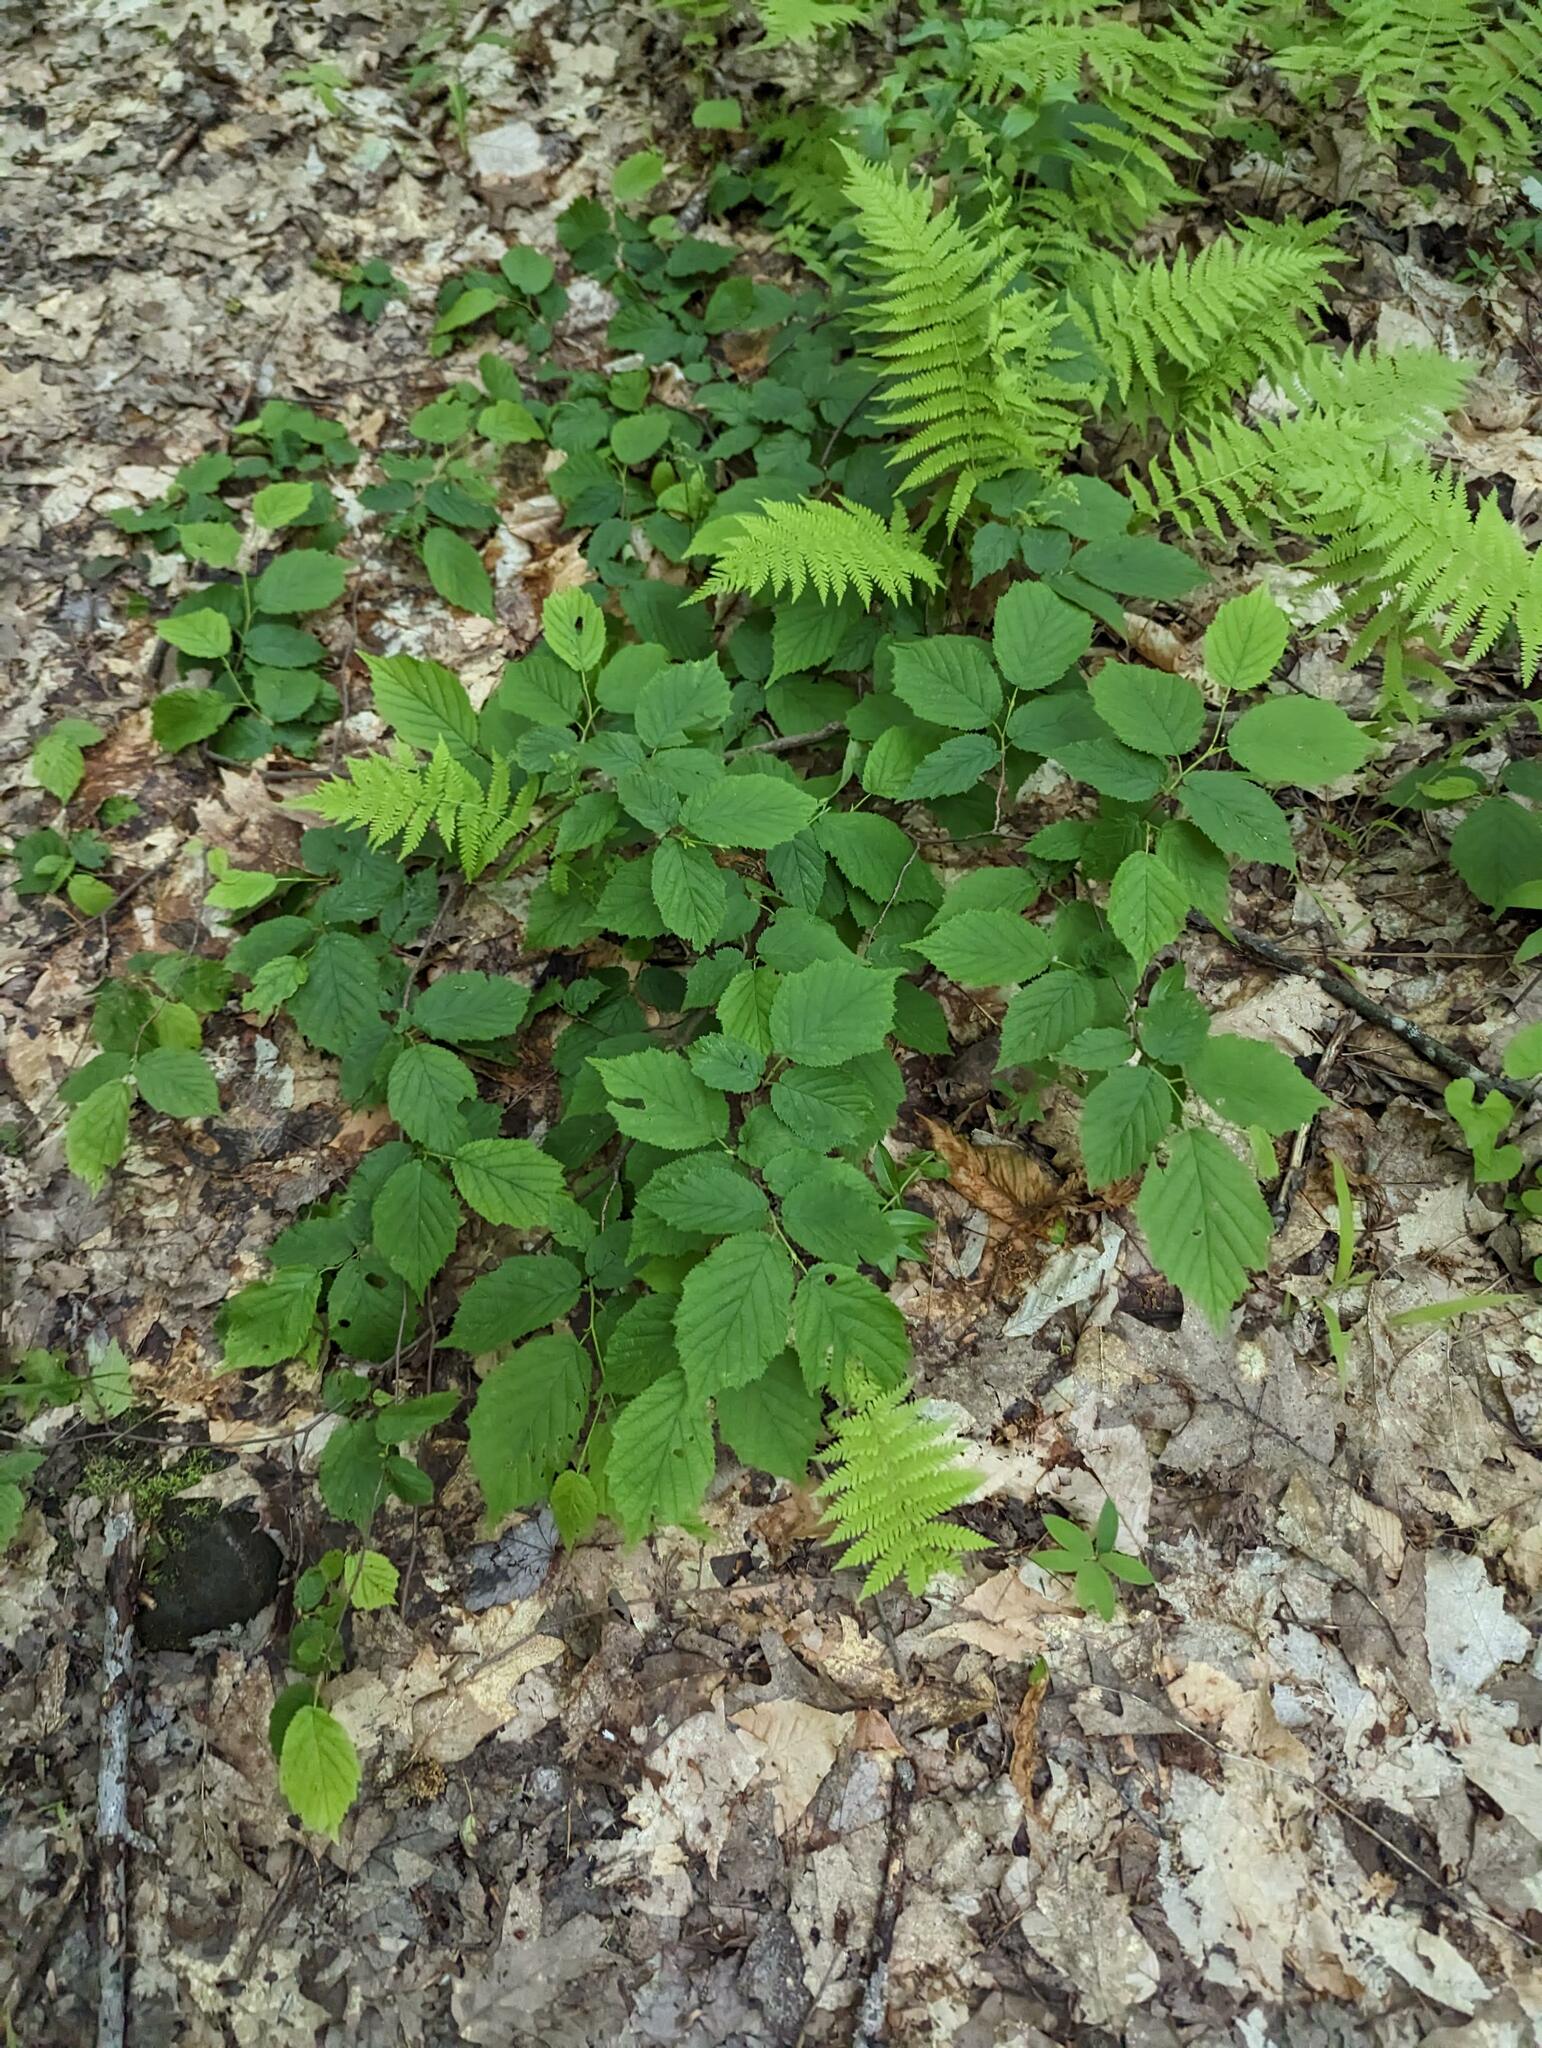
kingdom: Plantae
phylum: Tracheophyta
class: Magnoliopsida
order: Fagales
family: Betulaceae
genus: Corylus
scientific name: Corylus cornuta
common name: Beaked hazel
